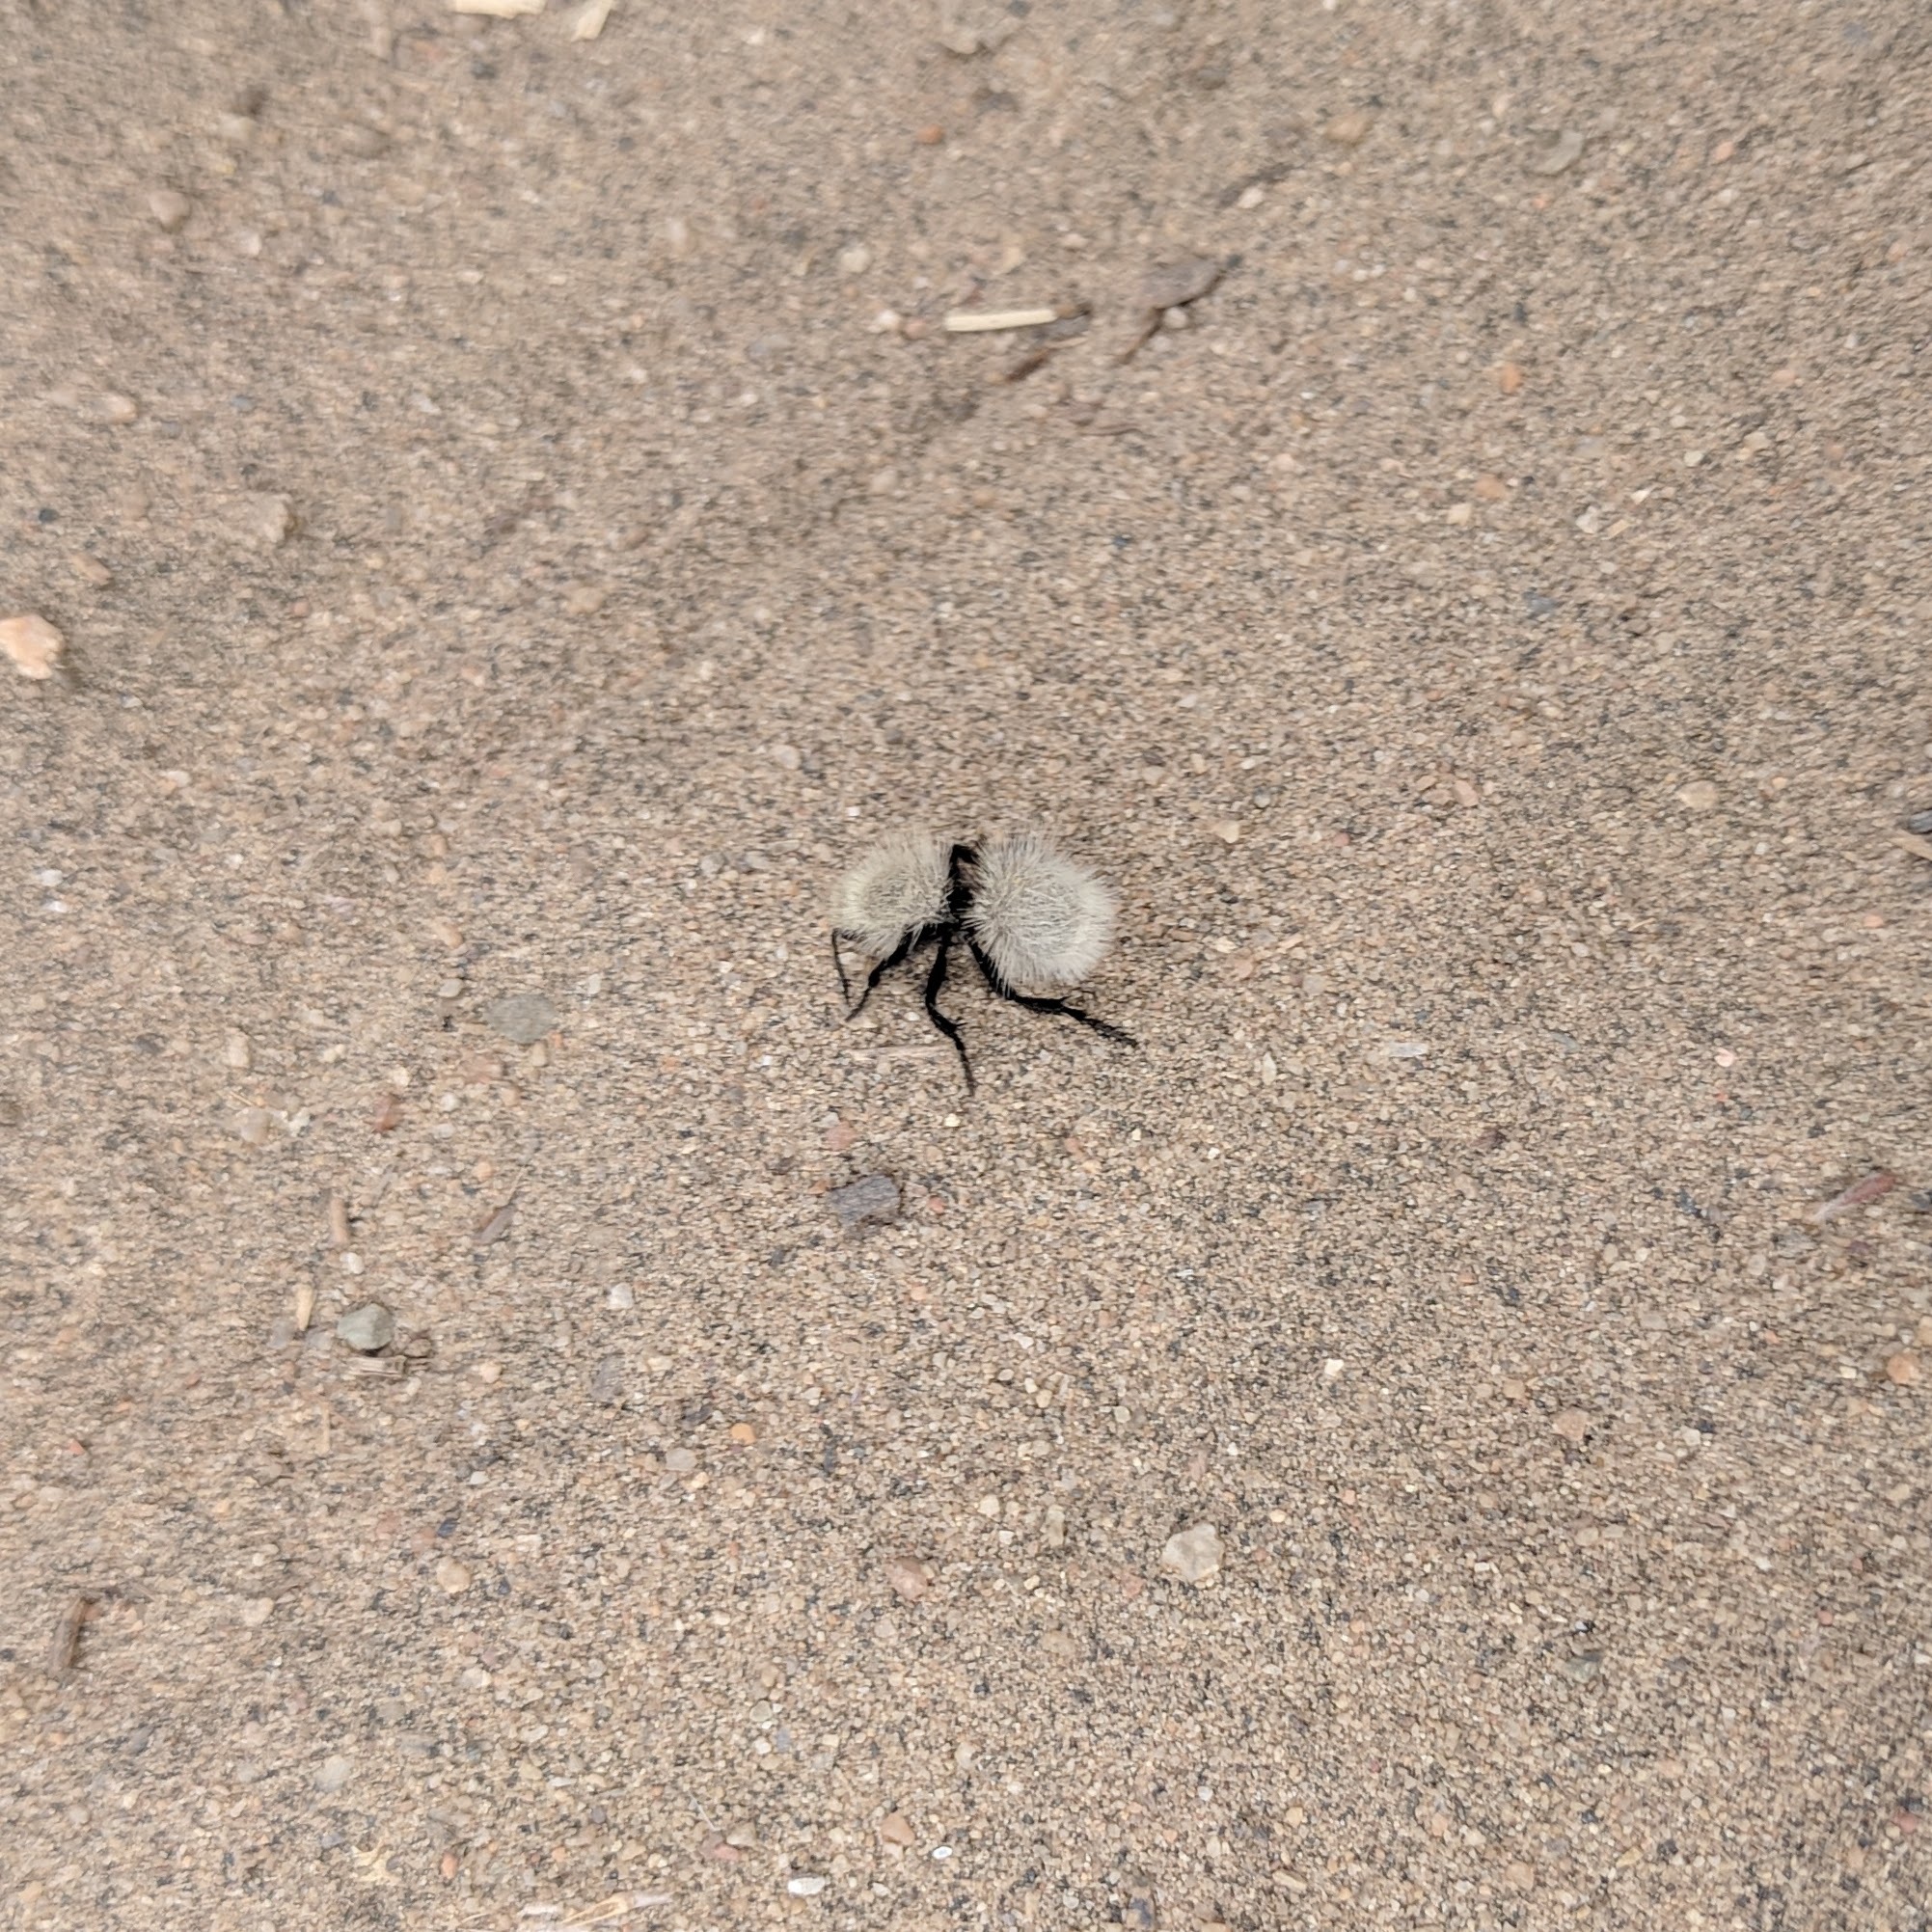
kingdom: Animalia
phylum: Arthropoda
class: Insecta
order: Hymenoptera
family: Mutillidae
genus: Dasymutilla
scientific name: Dasymutilla
